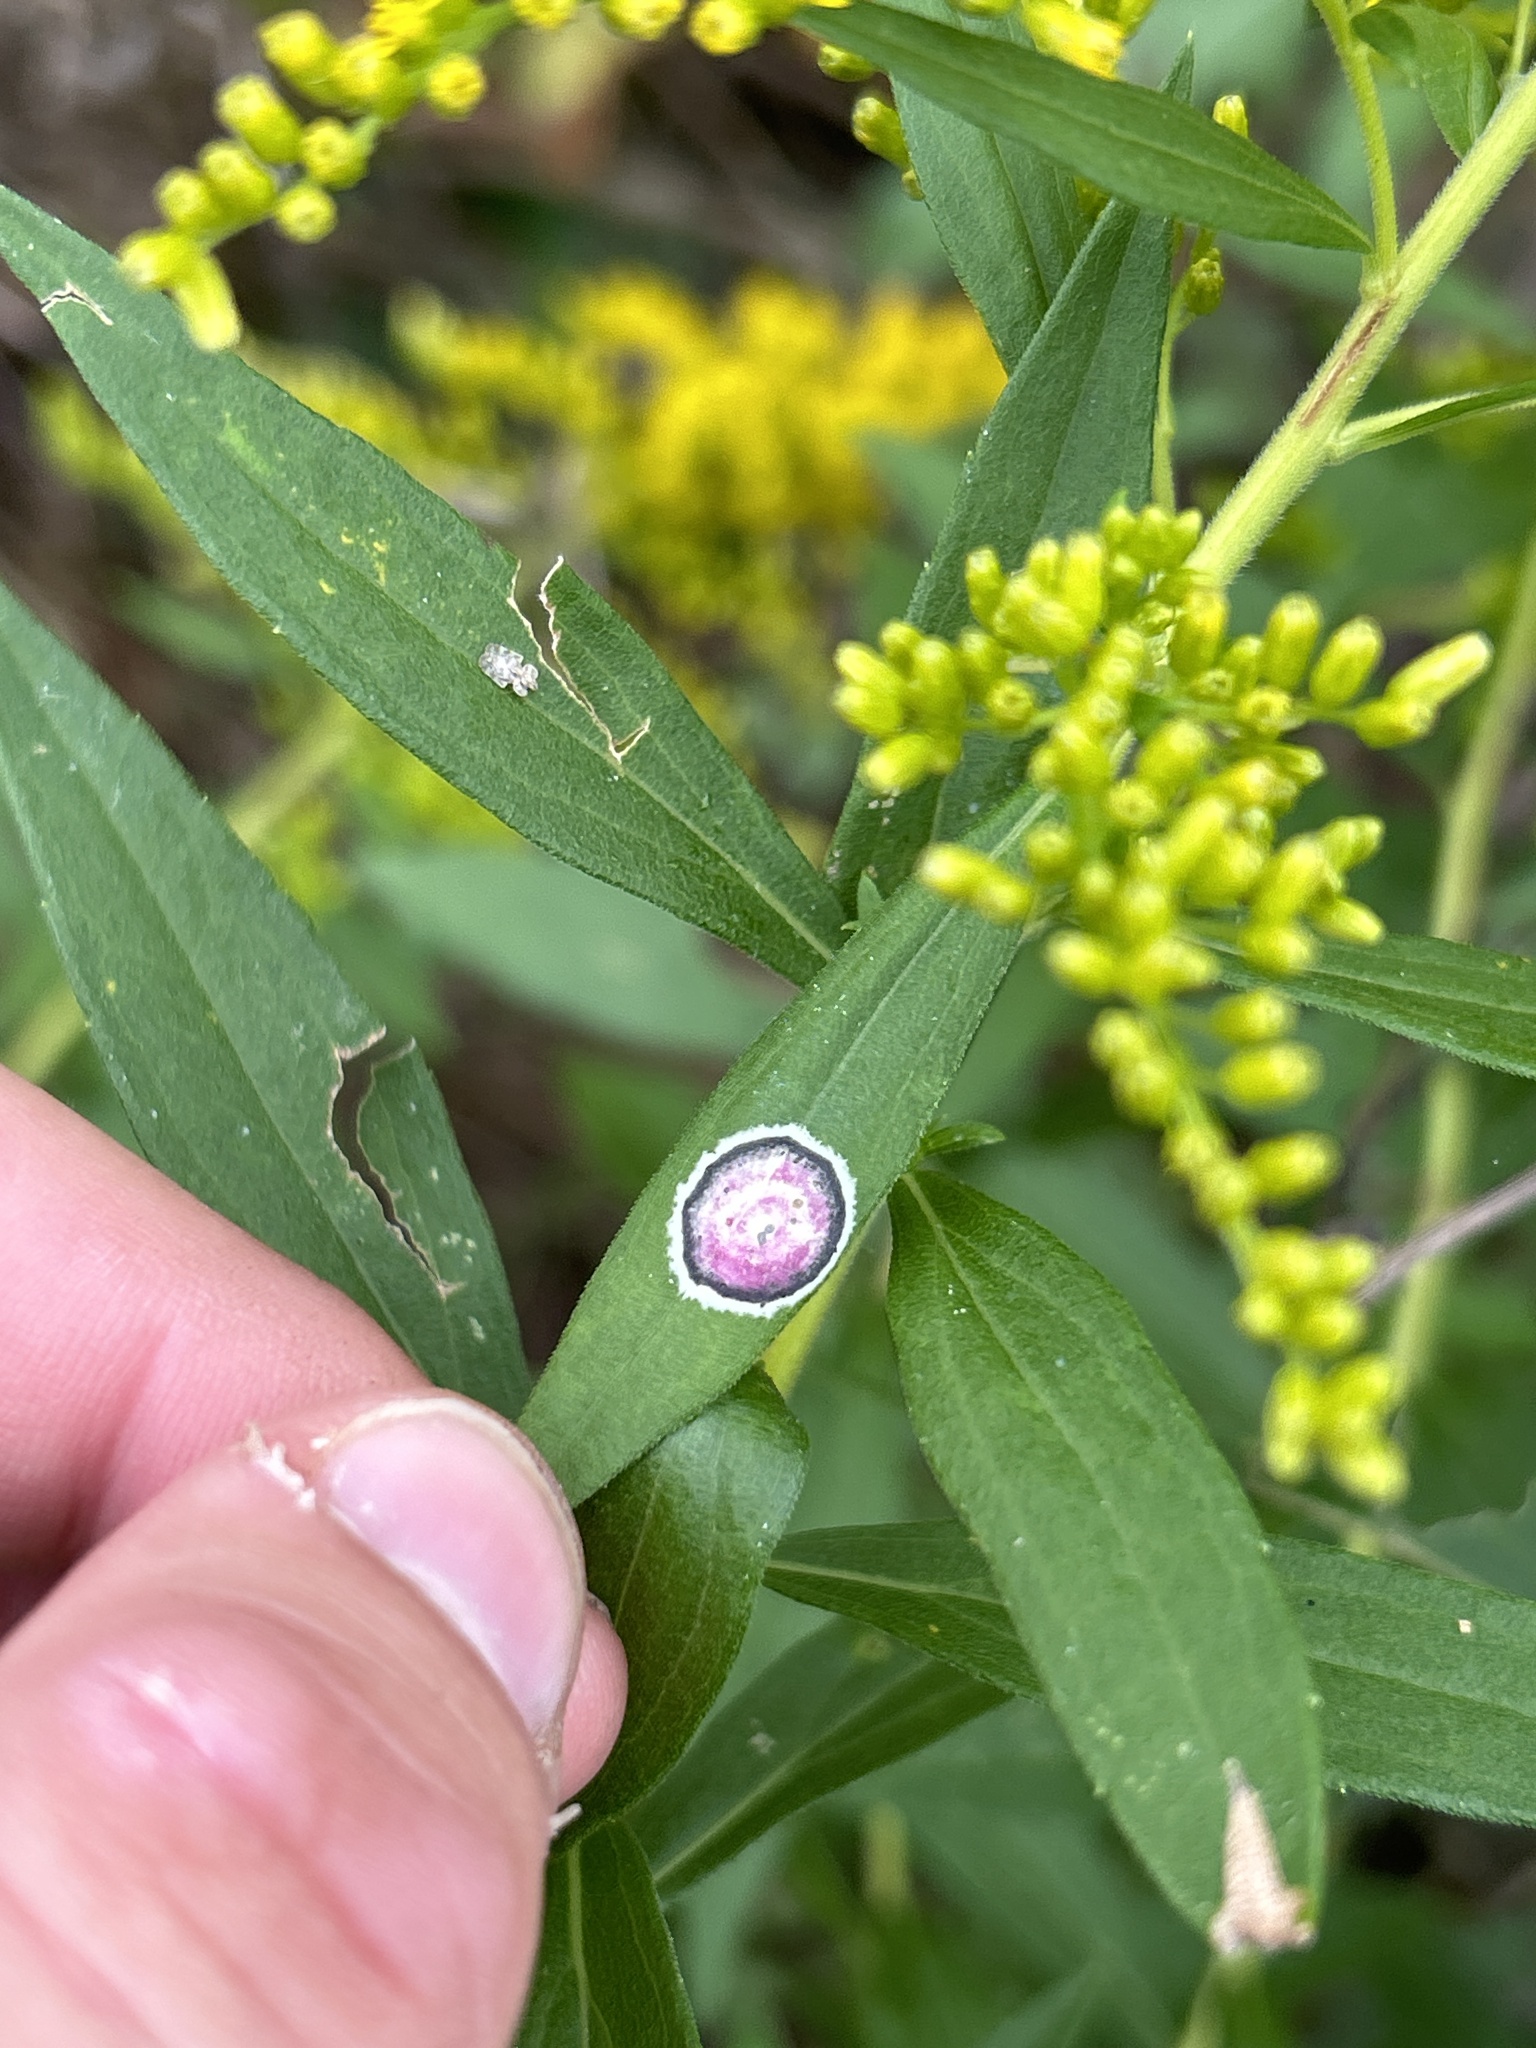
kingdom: Animalia
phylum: Arthropoda
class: Insecta
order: Diptera
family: Cecidomyiidae
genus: Asteromyia
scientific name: Asteromyia carbonifera
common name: Carbonifera goldenrod gall midge
